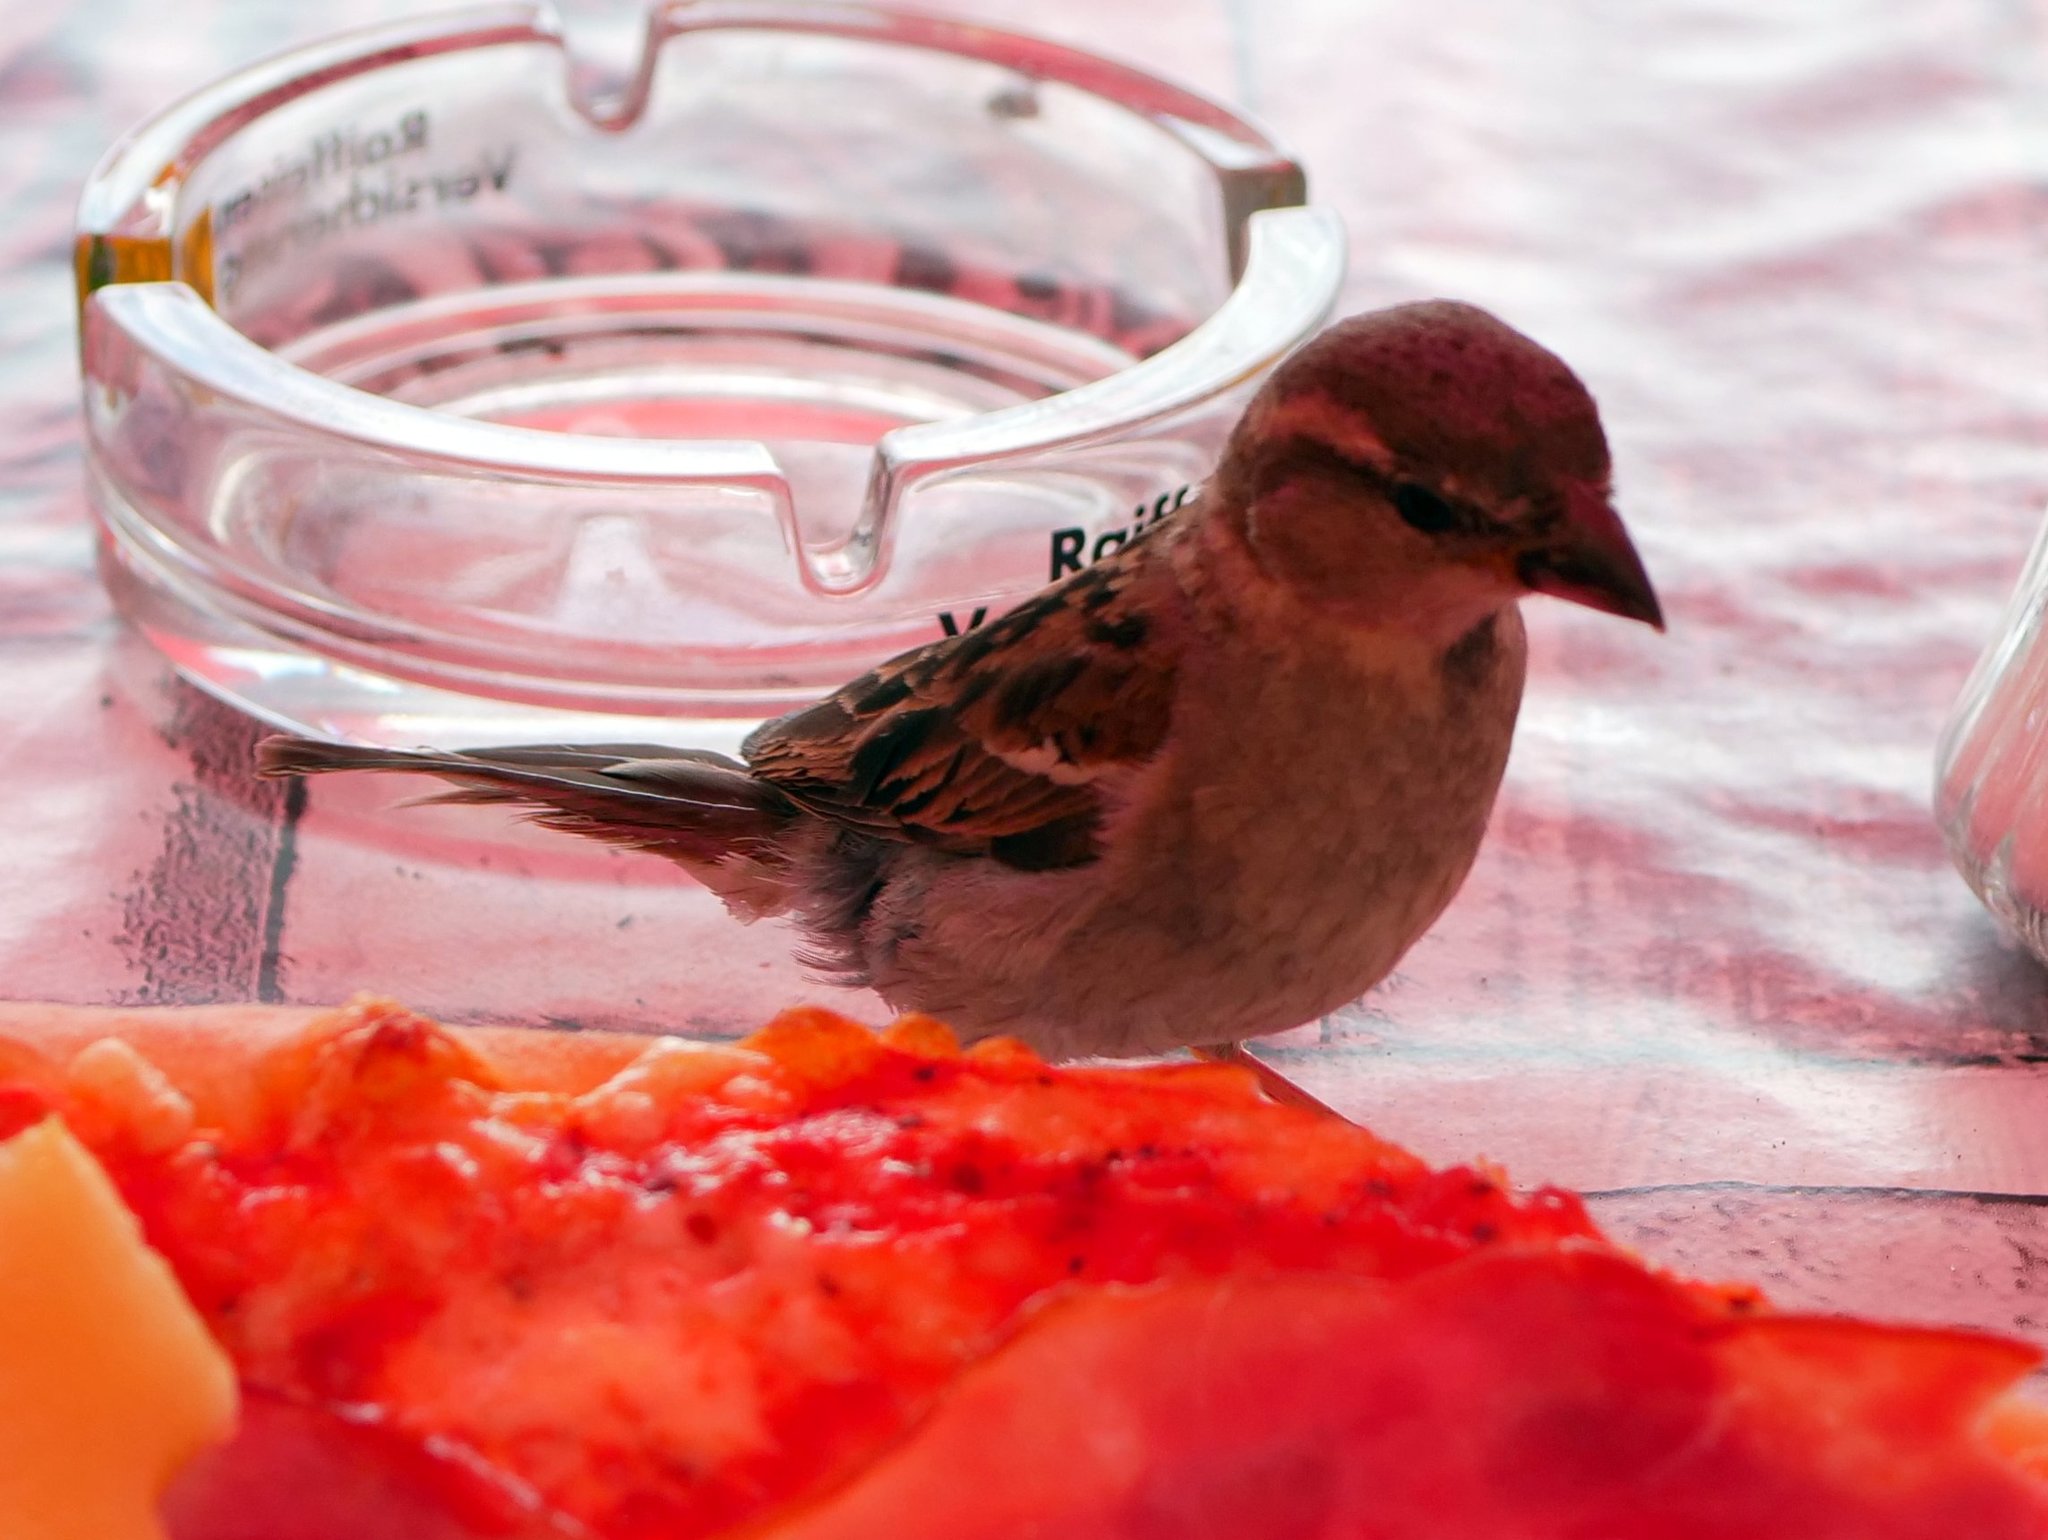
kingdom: Animalia
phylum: Chordata
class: Aves
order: Passeriformes
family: Passeridae
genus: Passer
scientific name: Passer domesticus
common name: House sparrow
